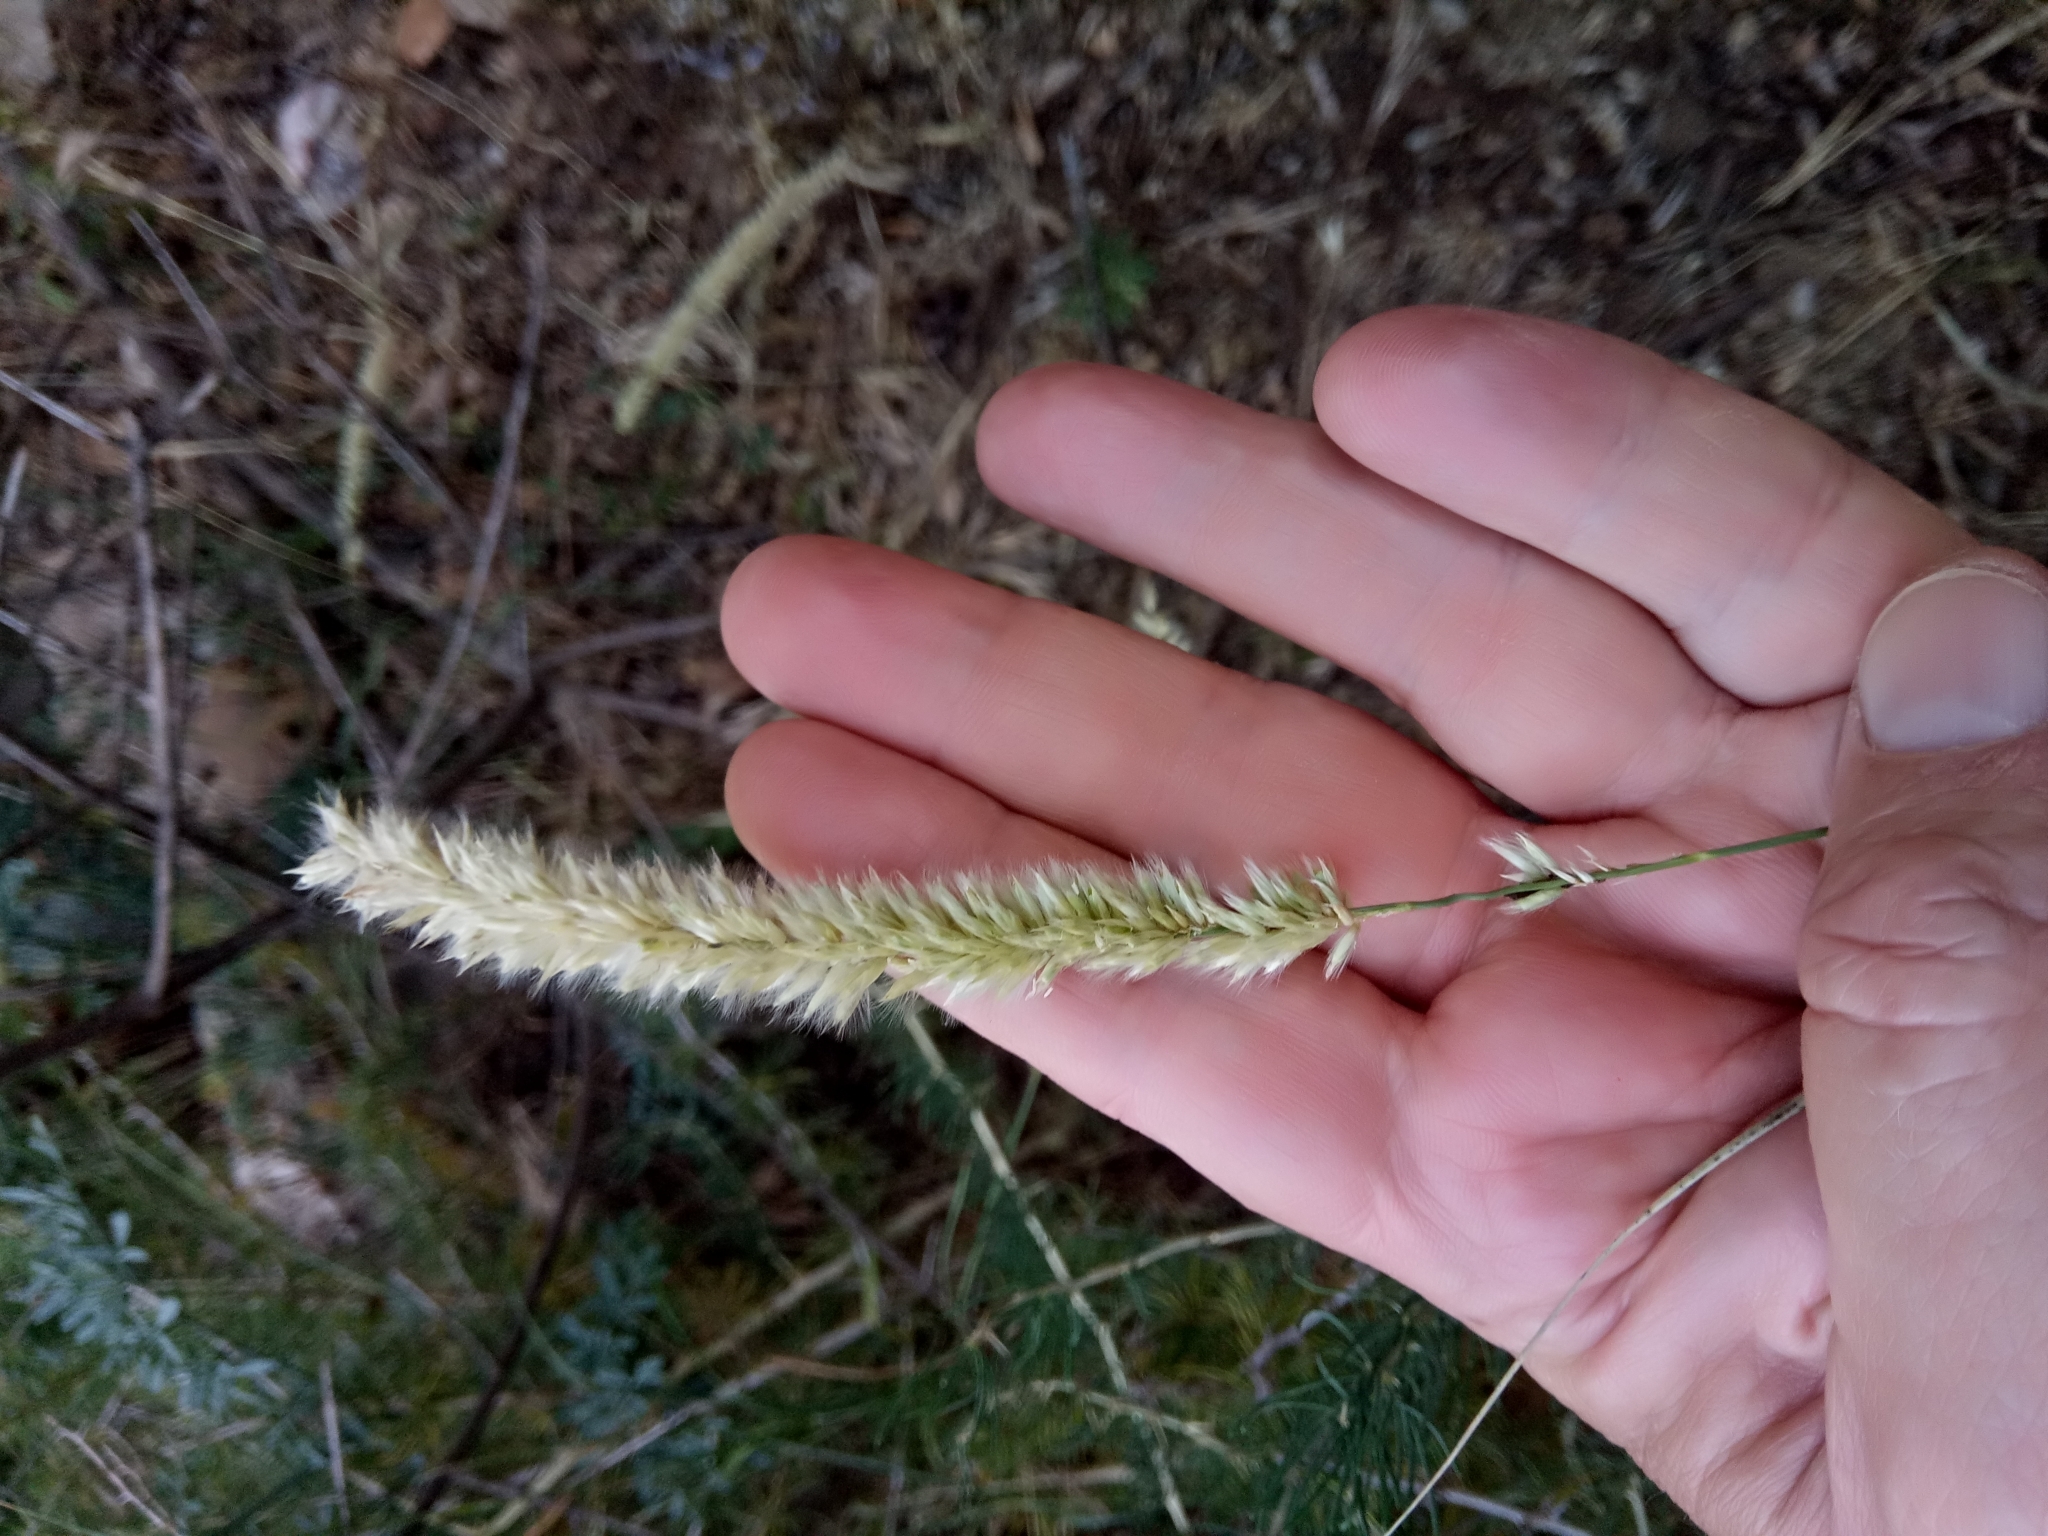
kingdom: Plantae
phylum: Tracheophyta
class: Liliopsida
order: Poales
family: Poaceae
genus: Melica
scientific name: Melica ciliata
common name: Hairy melicgrass
